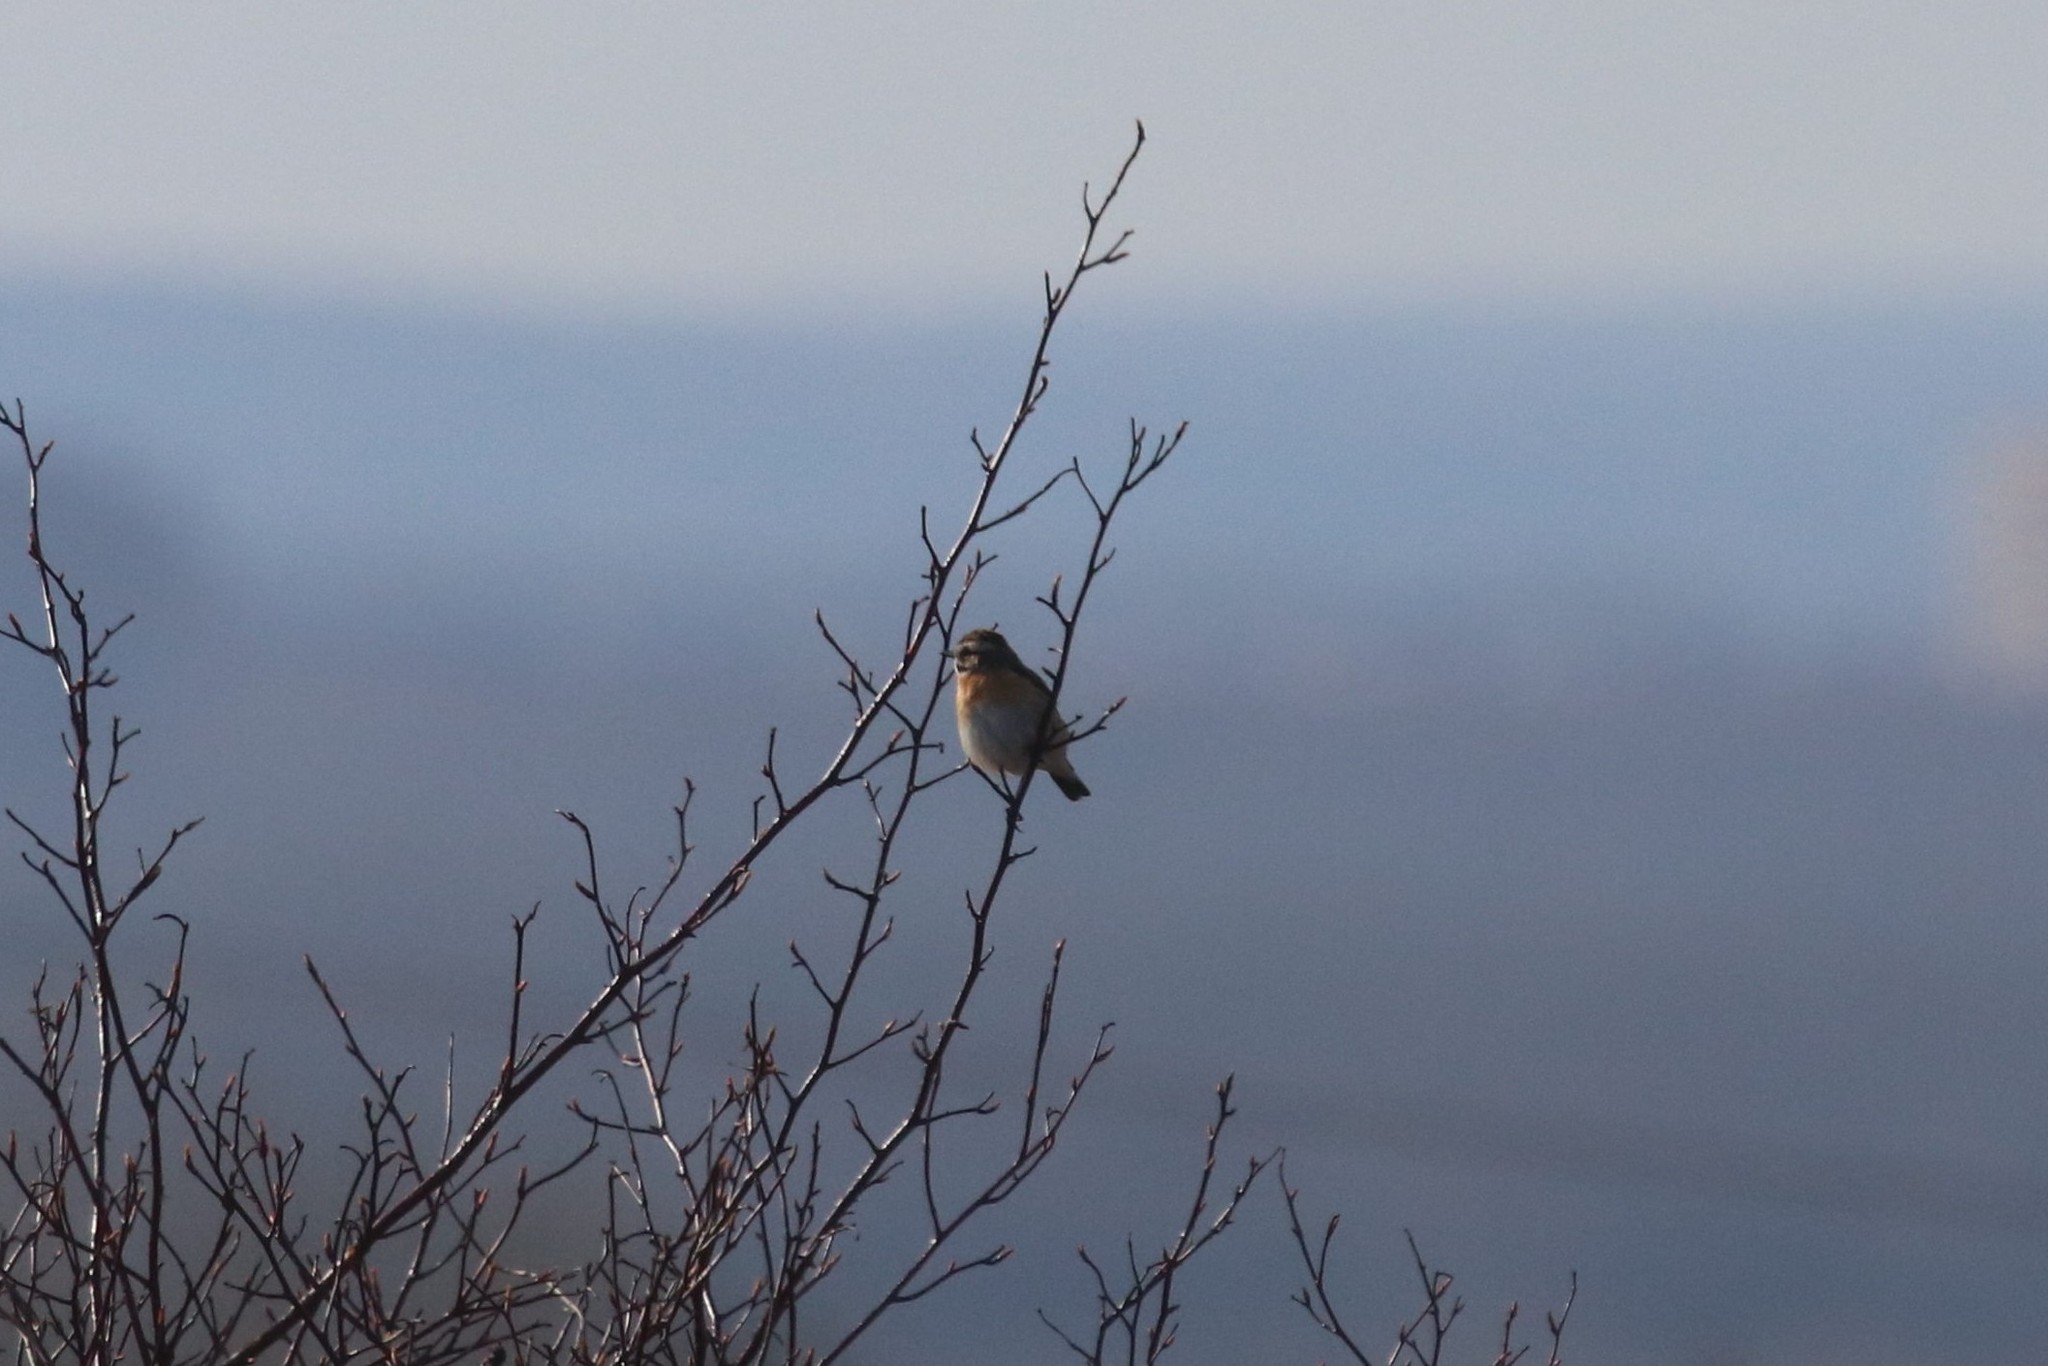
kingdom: Animalia
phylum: Chordata
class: Aves
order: Passeriformes
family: Muscicapidae
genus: Saxicola
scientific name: Saxicola rubetra
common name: Whinchat
